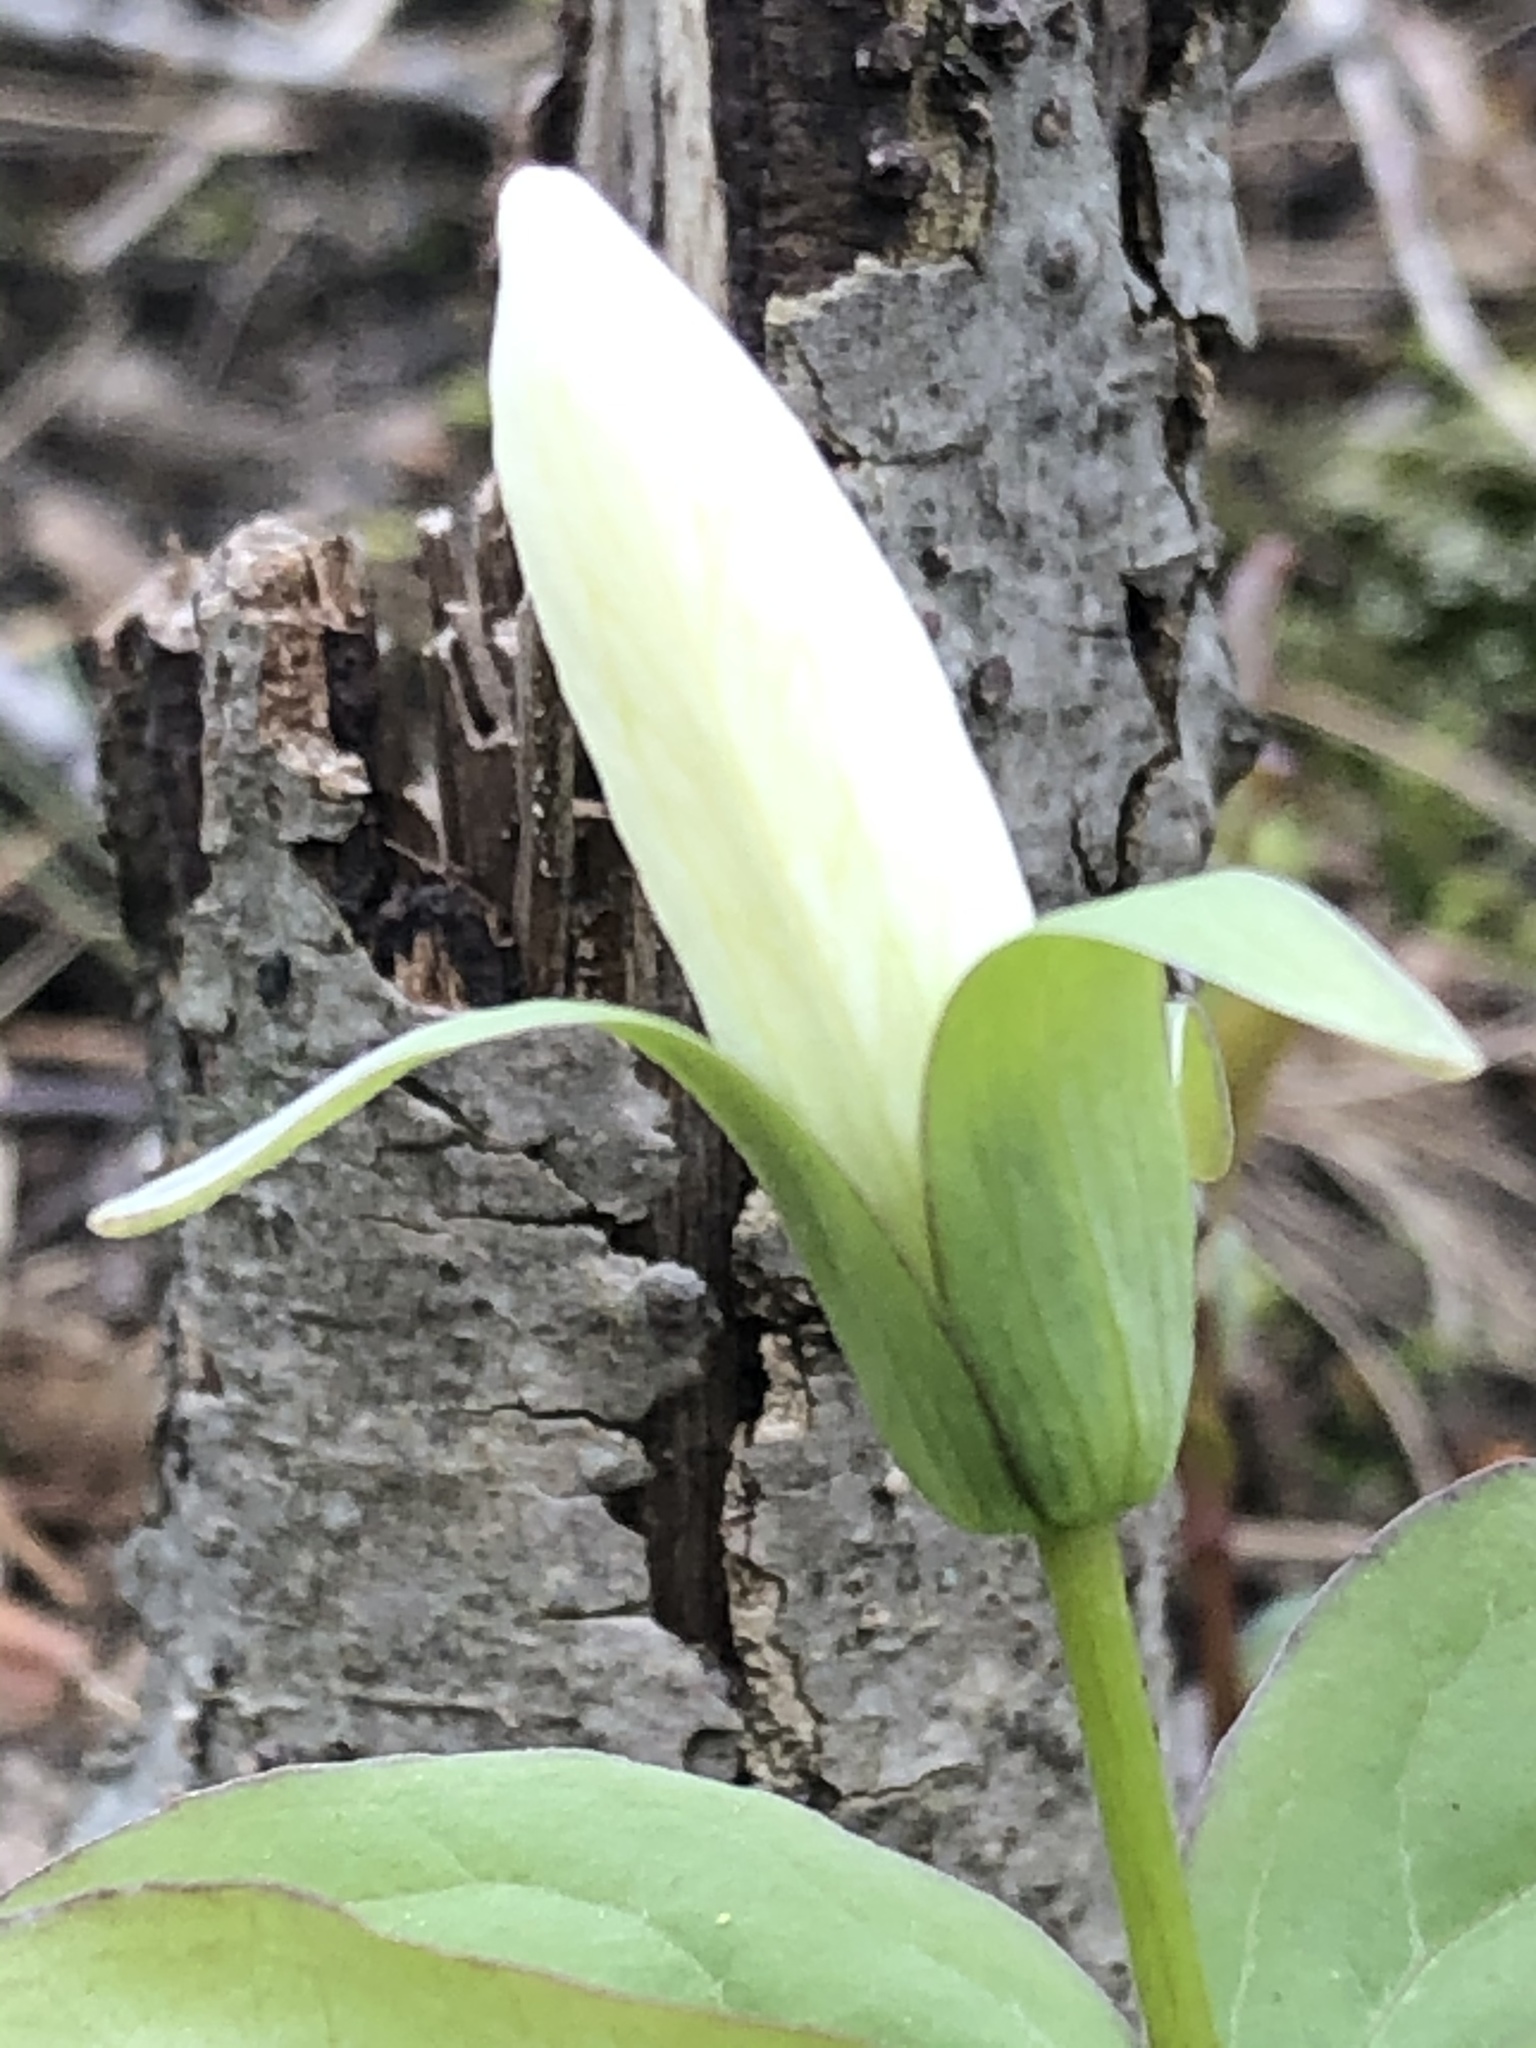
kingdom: Plantae
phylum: Tracheophyta
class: Liliopsida
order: Liliales
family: Melanthiaceae
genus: Trillium
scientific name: Trillium grandiflorum
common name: Great white trillium
